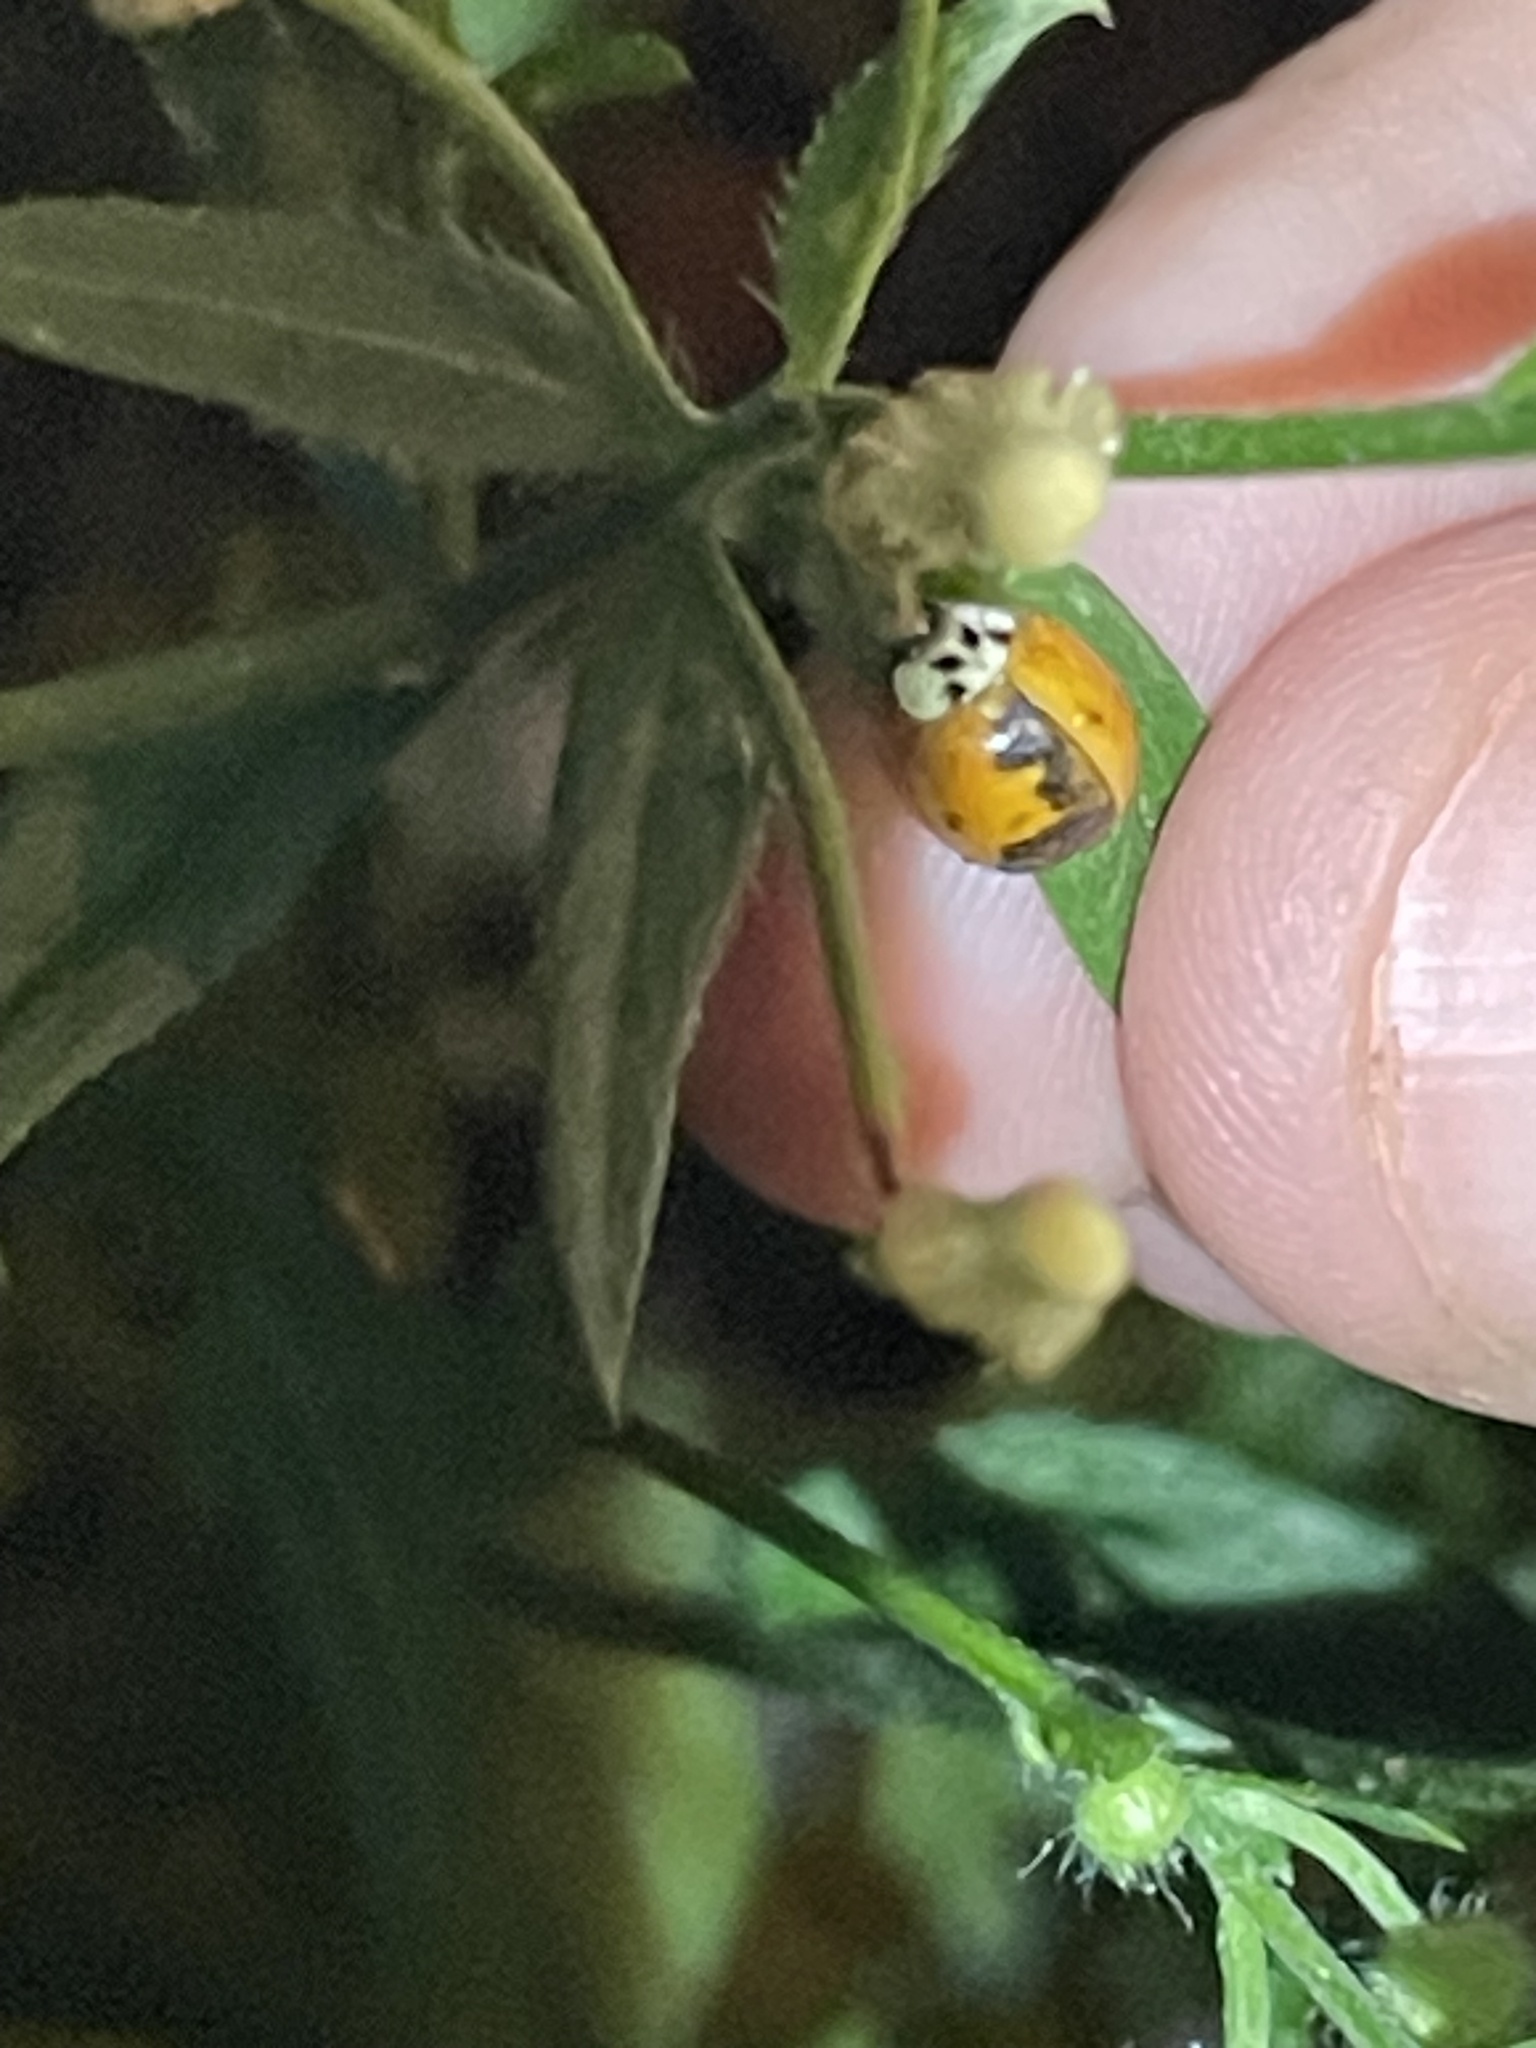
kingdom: Animalia
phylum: Arthropoda
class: Insecta
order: Coleoptera
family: Coccinellidae
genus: Harmonia
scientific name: Harmonia axyridis
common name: Harlequin ladybird
